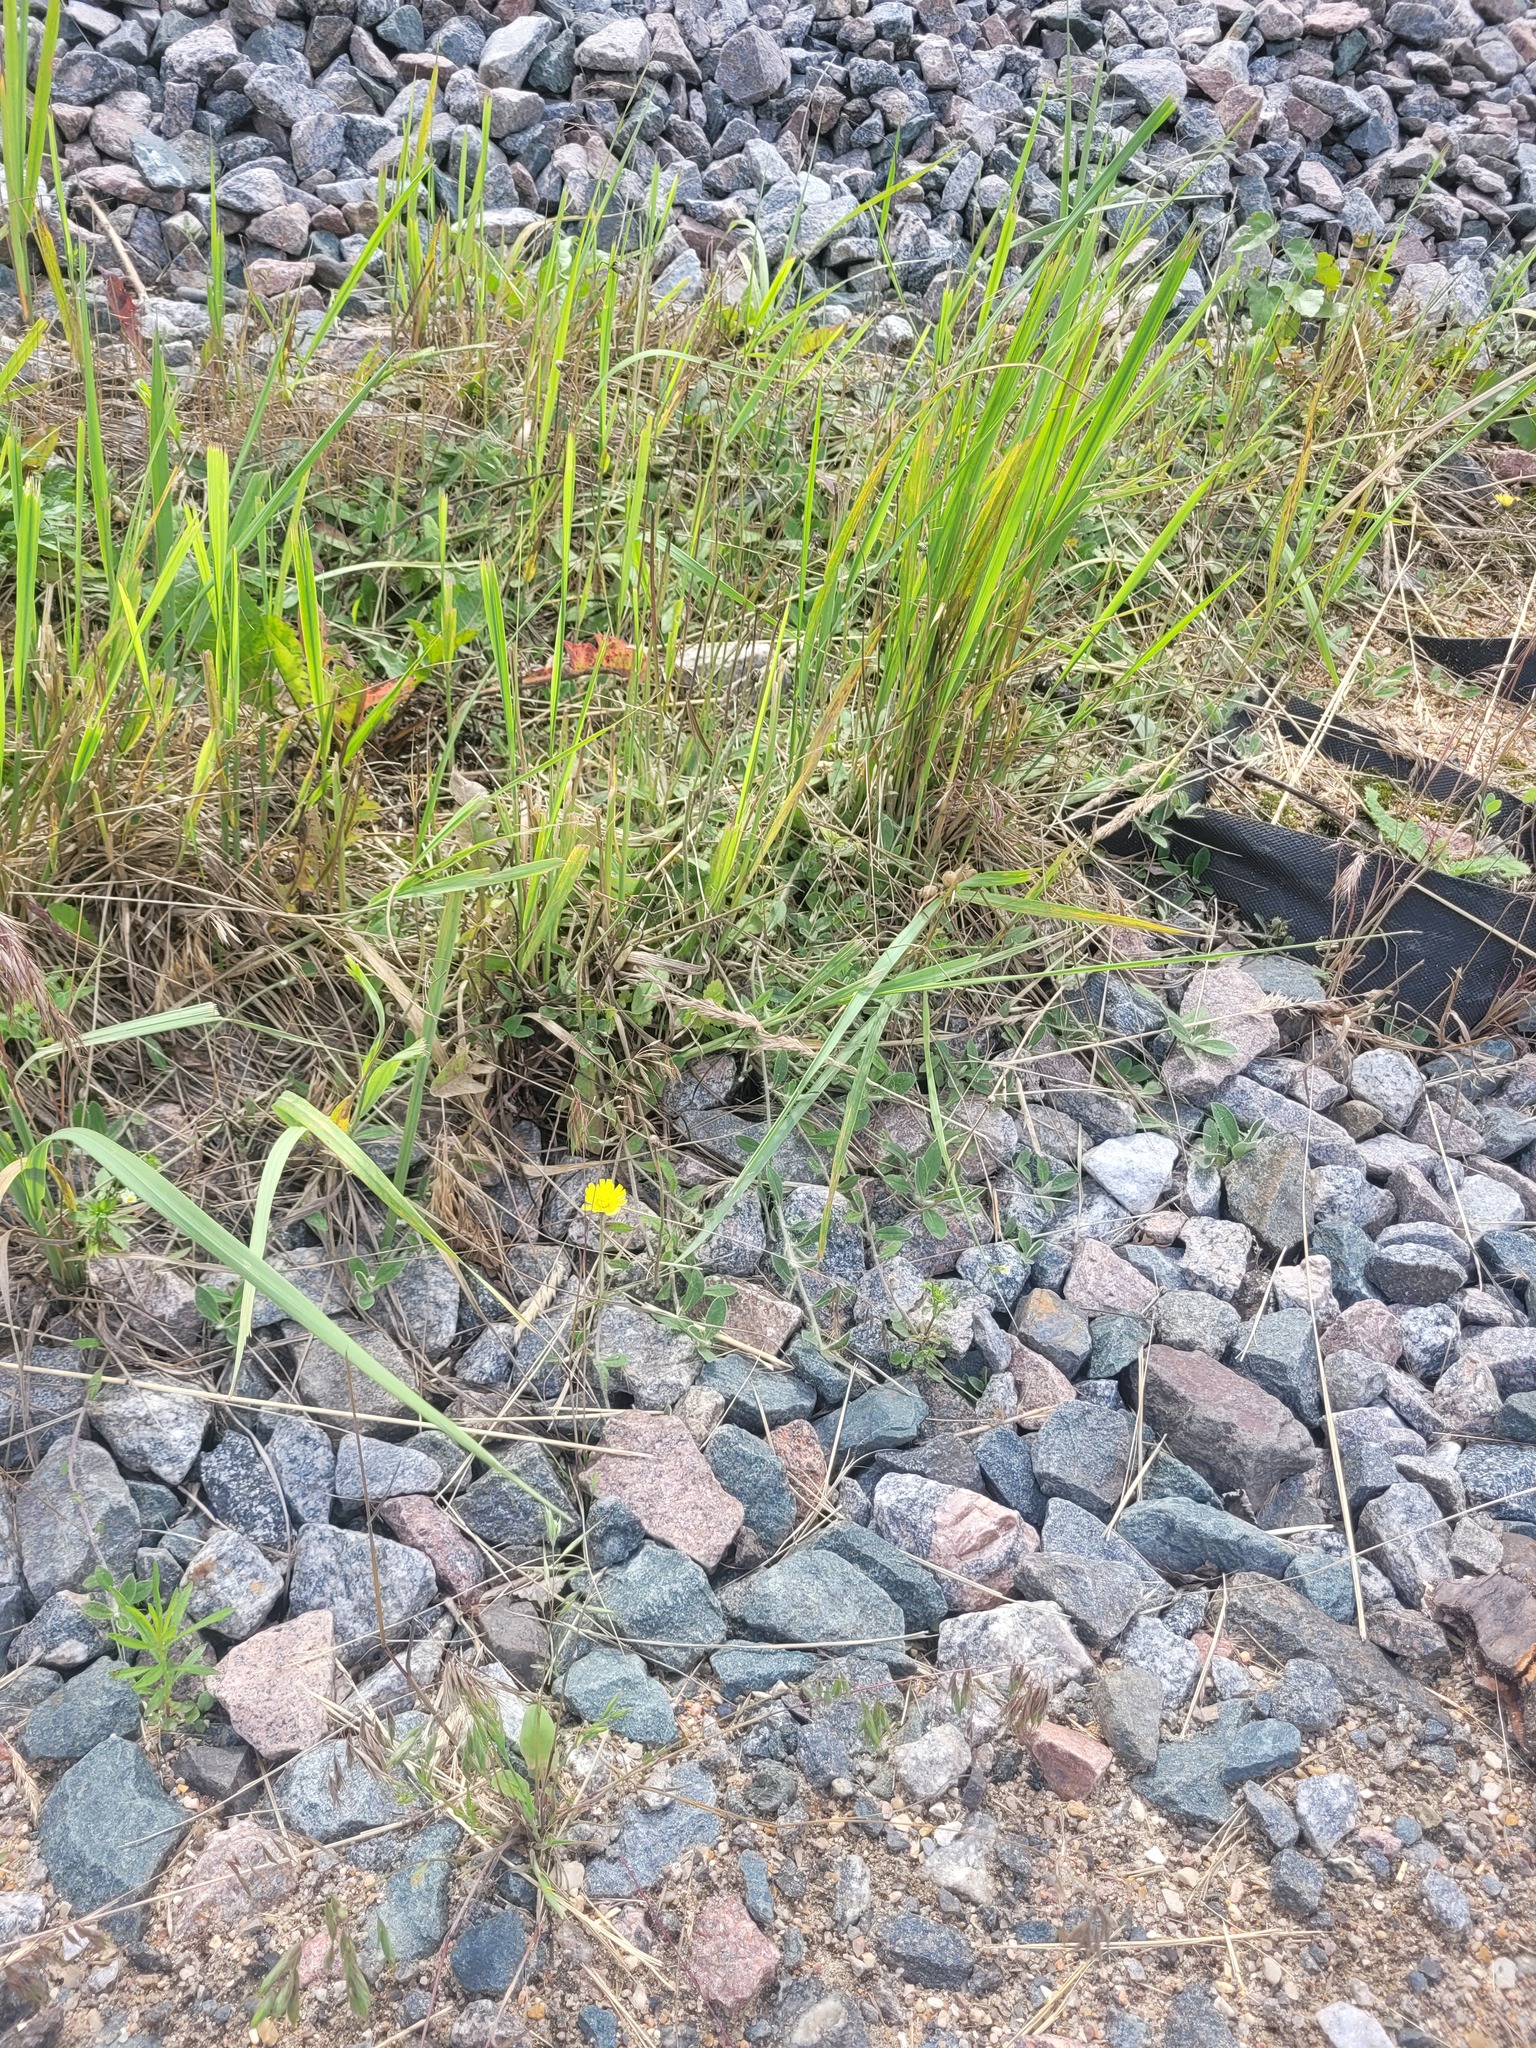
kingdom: Plantae
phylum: Tracheophyta
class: Magnoliopsida
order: Asterales
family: Asteraceae
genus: Pilosella
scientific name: Pilosella officinarum
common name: Mouse-ear hawkweed
